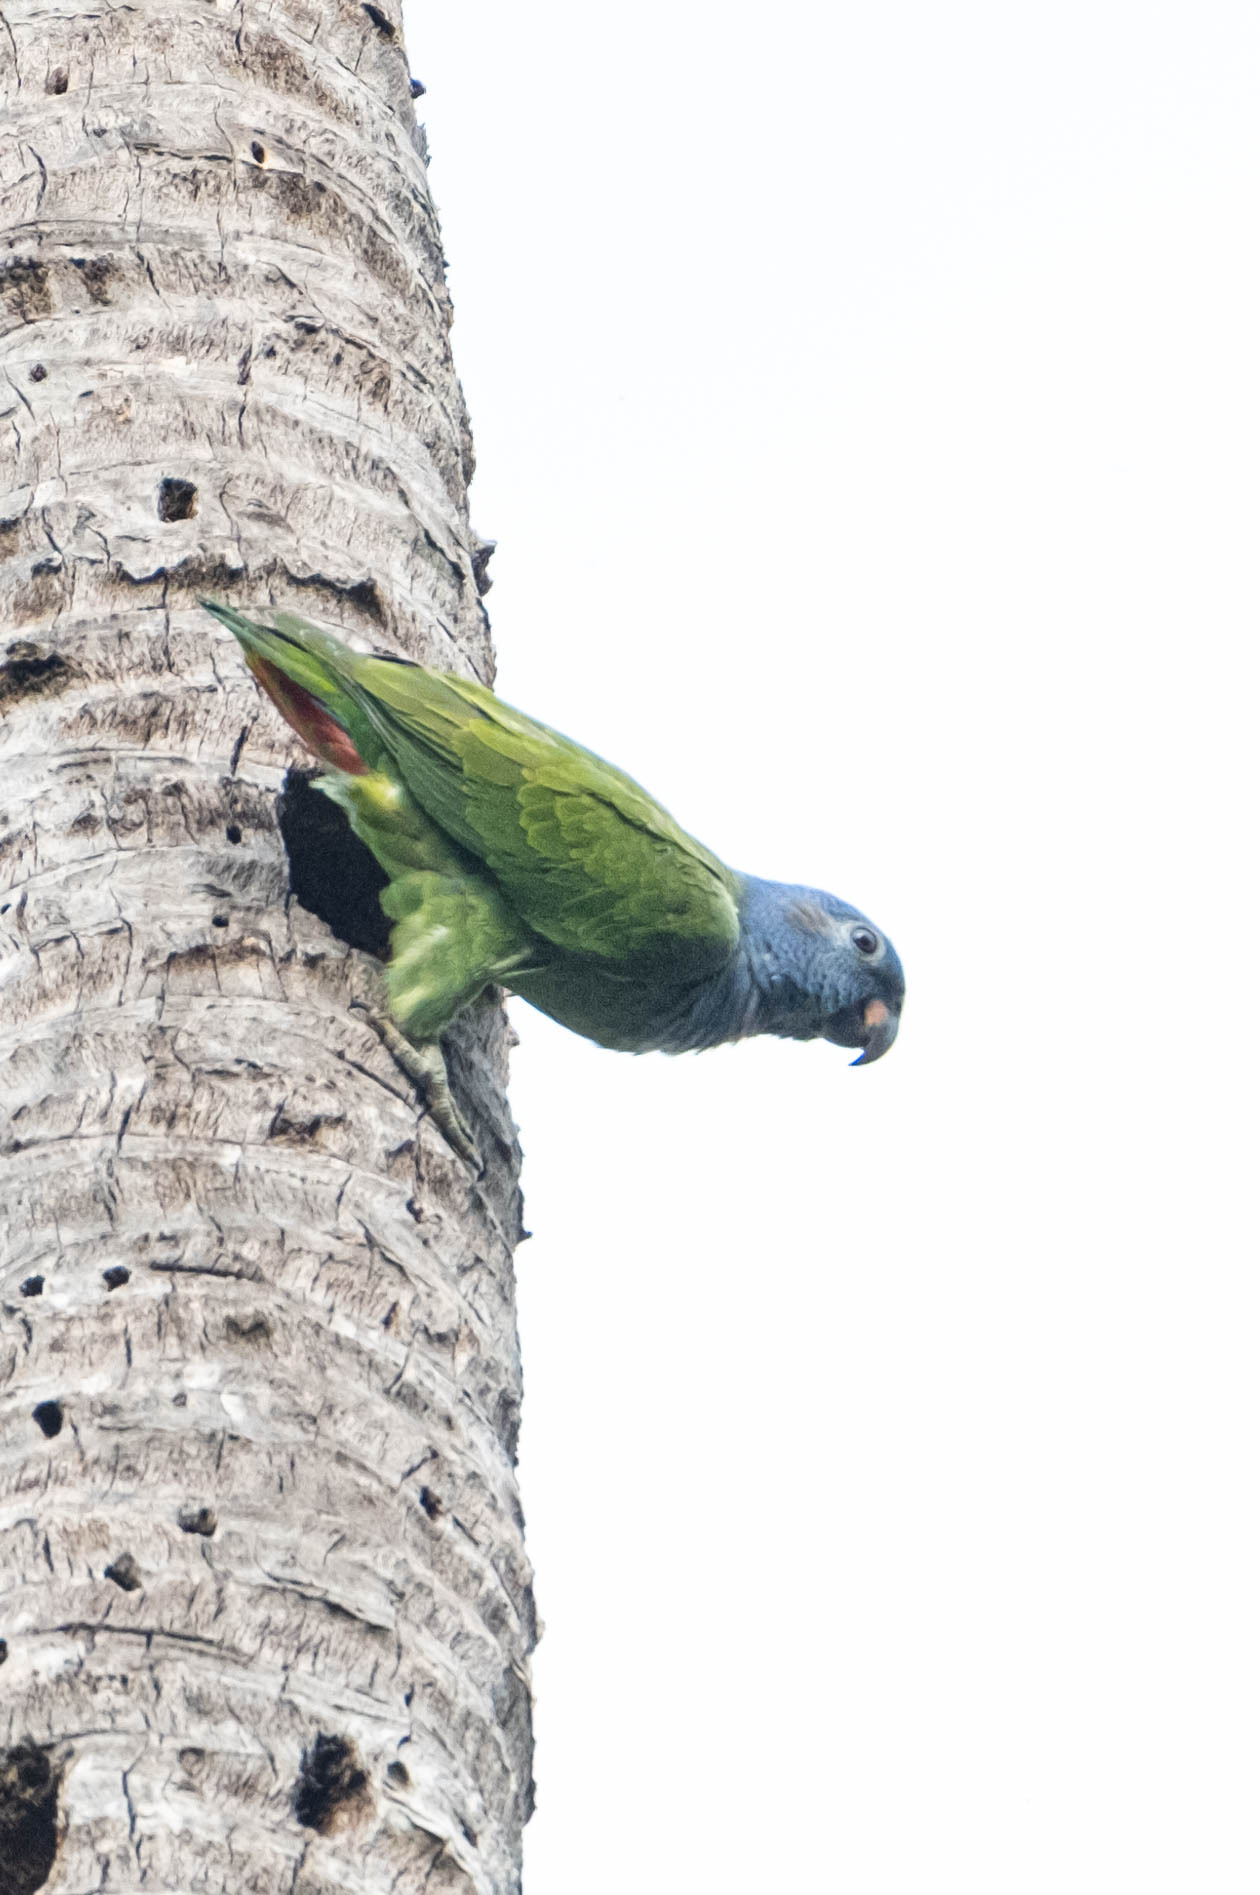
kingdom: Animalia
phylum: Chordata
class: Aves
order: Psittaciformes
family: Psittacidae
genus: Pionus
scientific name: Pionus menstruus
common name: Blue-headed parrot
